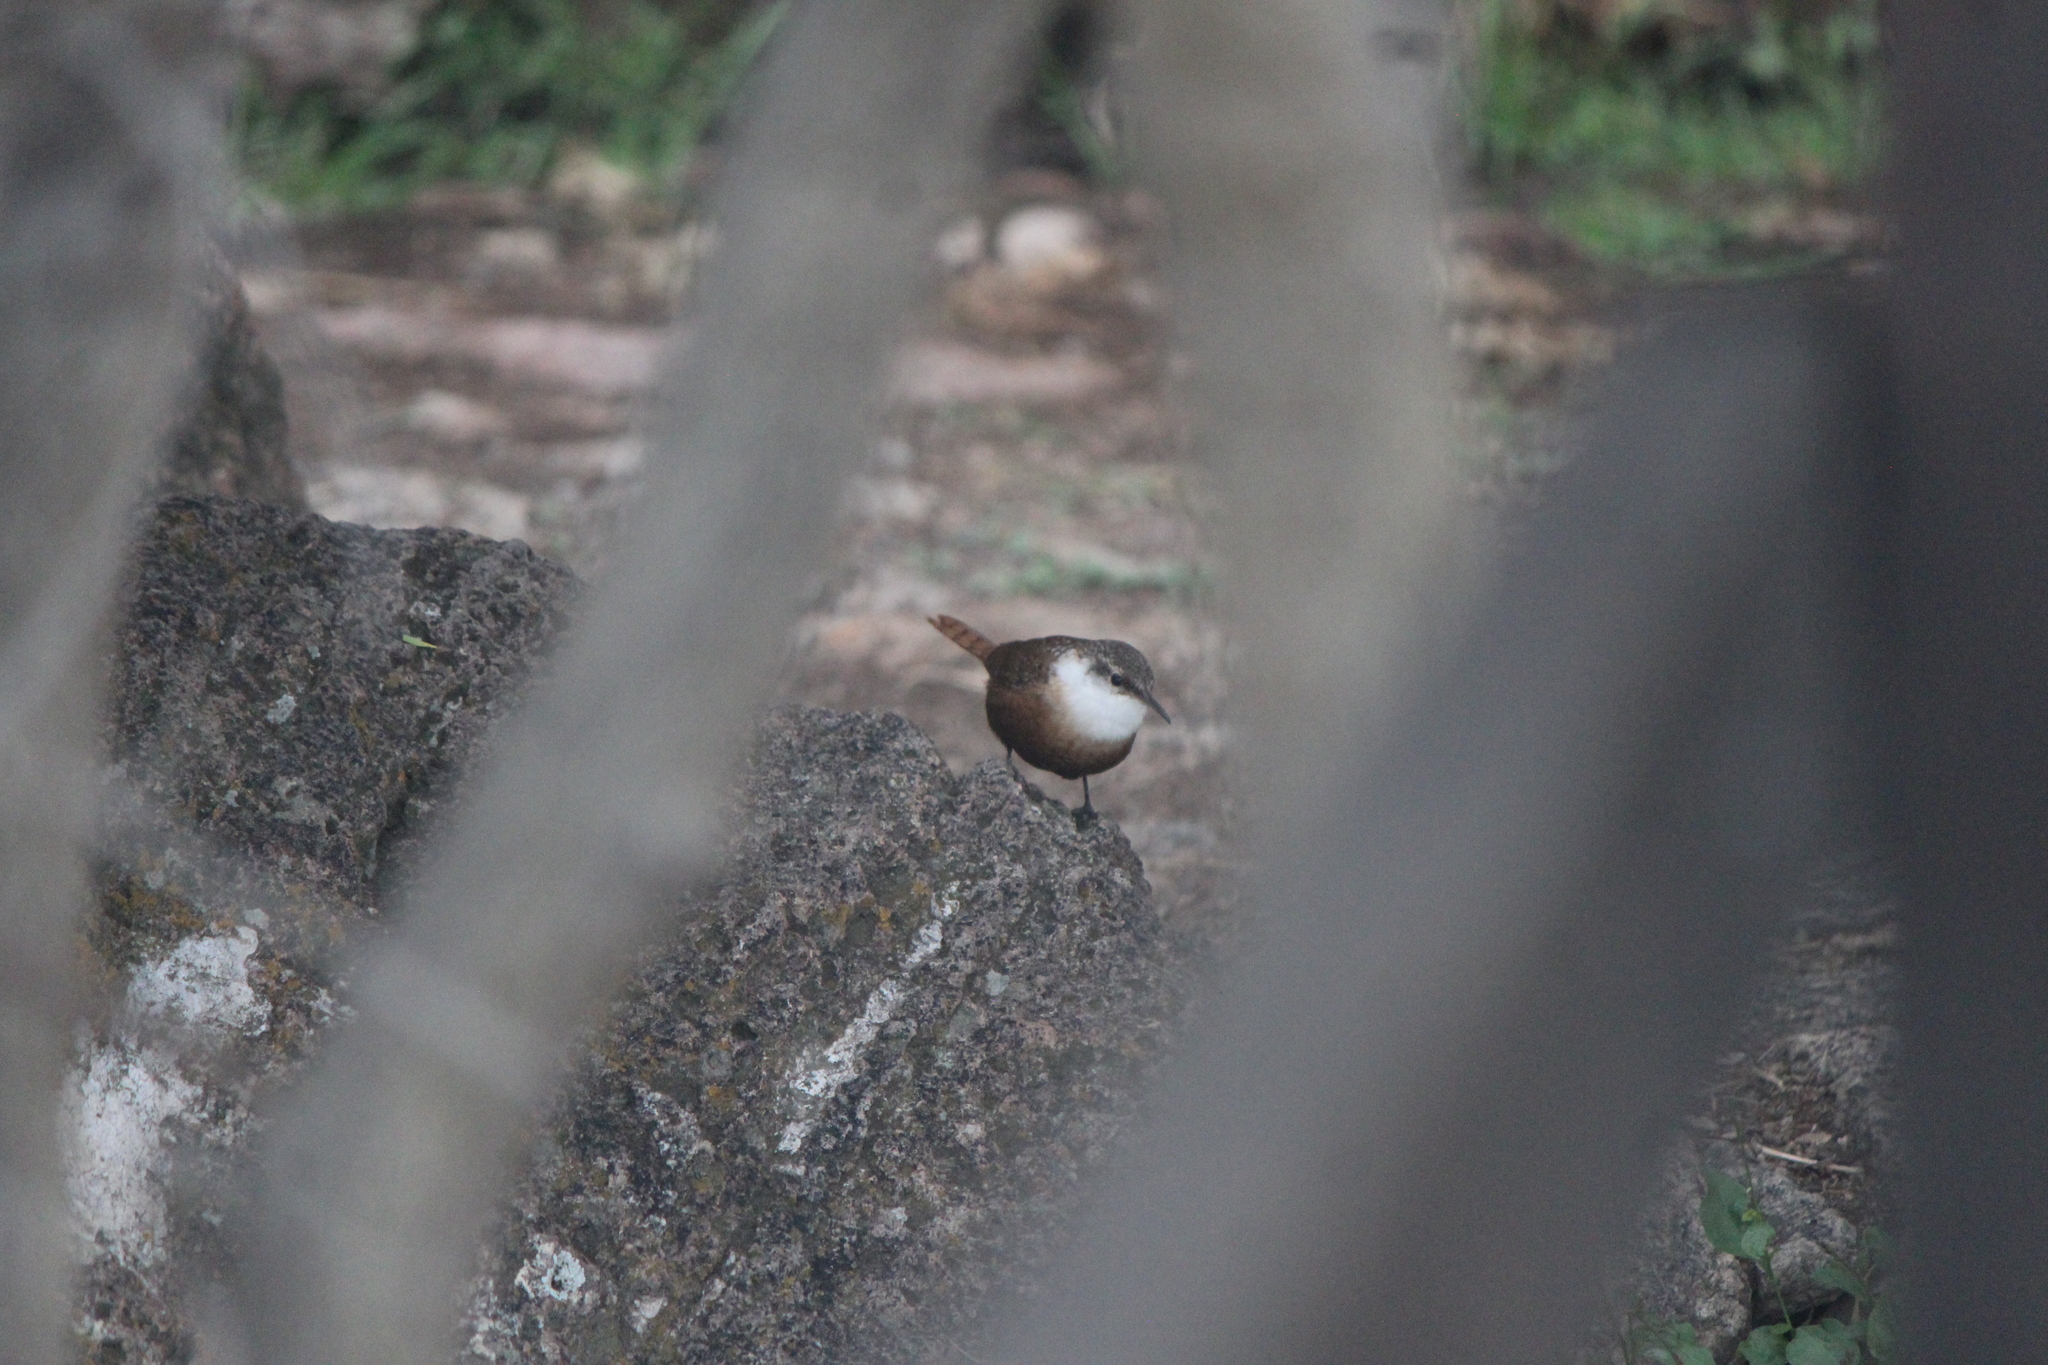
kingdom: Animalia
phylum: Chordata
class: Aves
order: Passeriformes
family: Troglodytidae
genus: Catherpes
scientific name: Catherpes mexicanus
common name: Canyon wren
